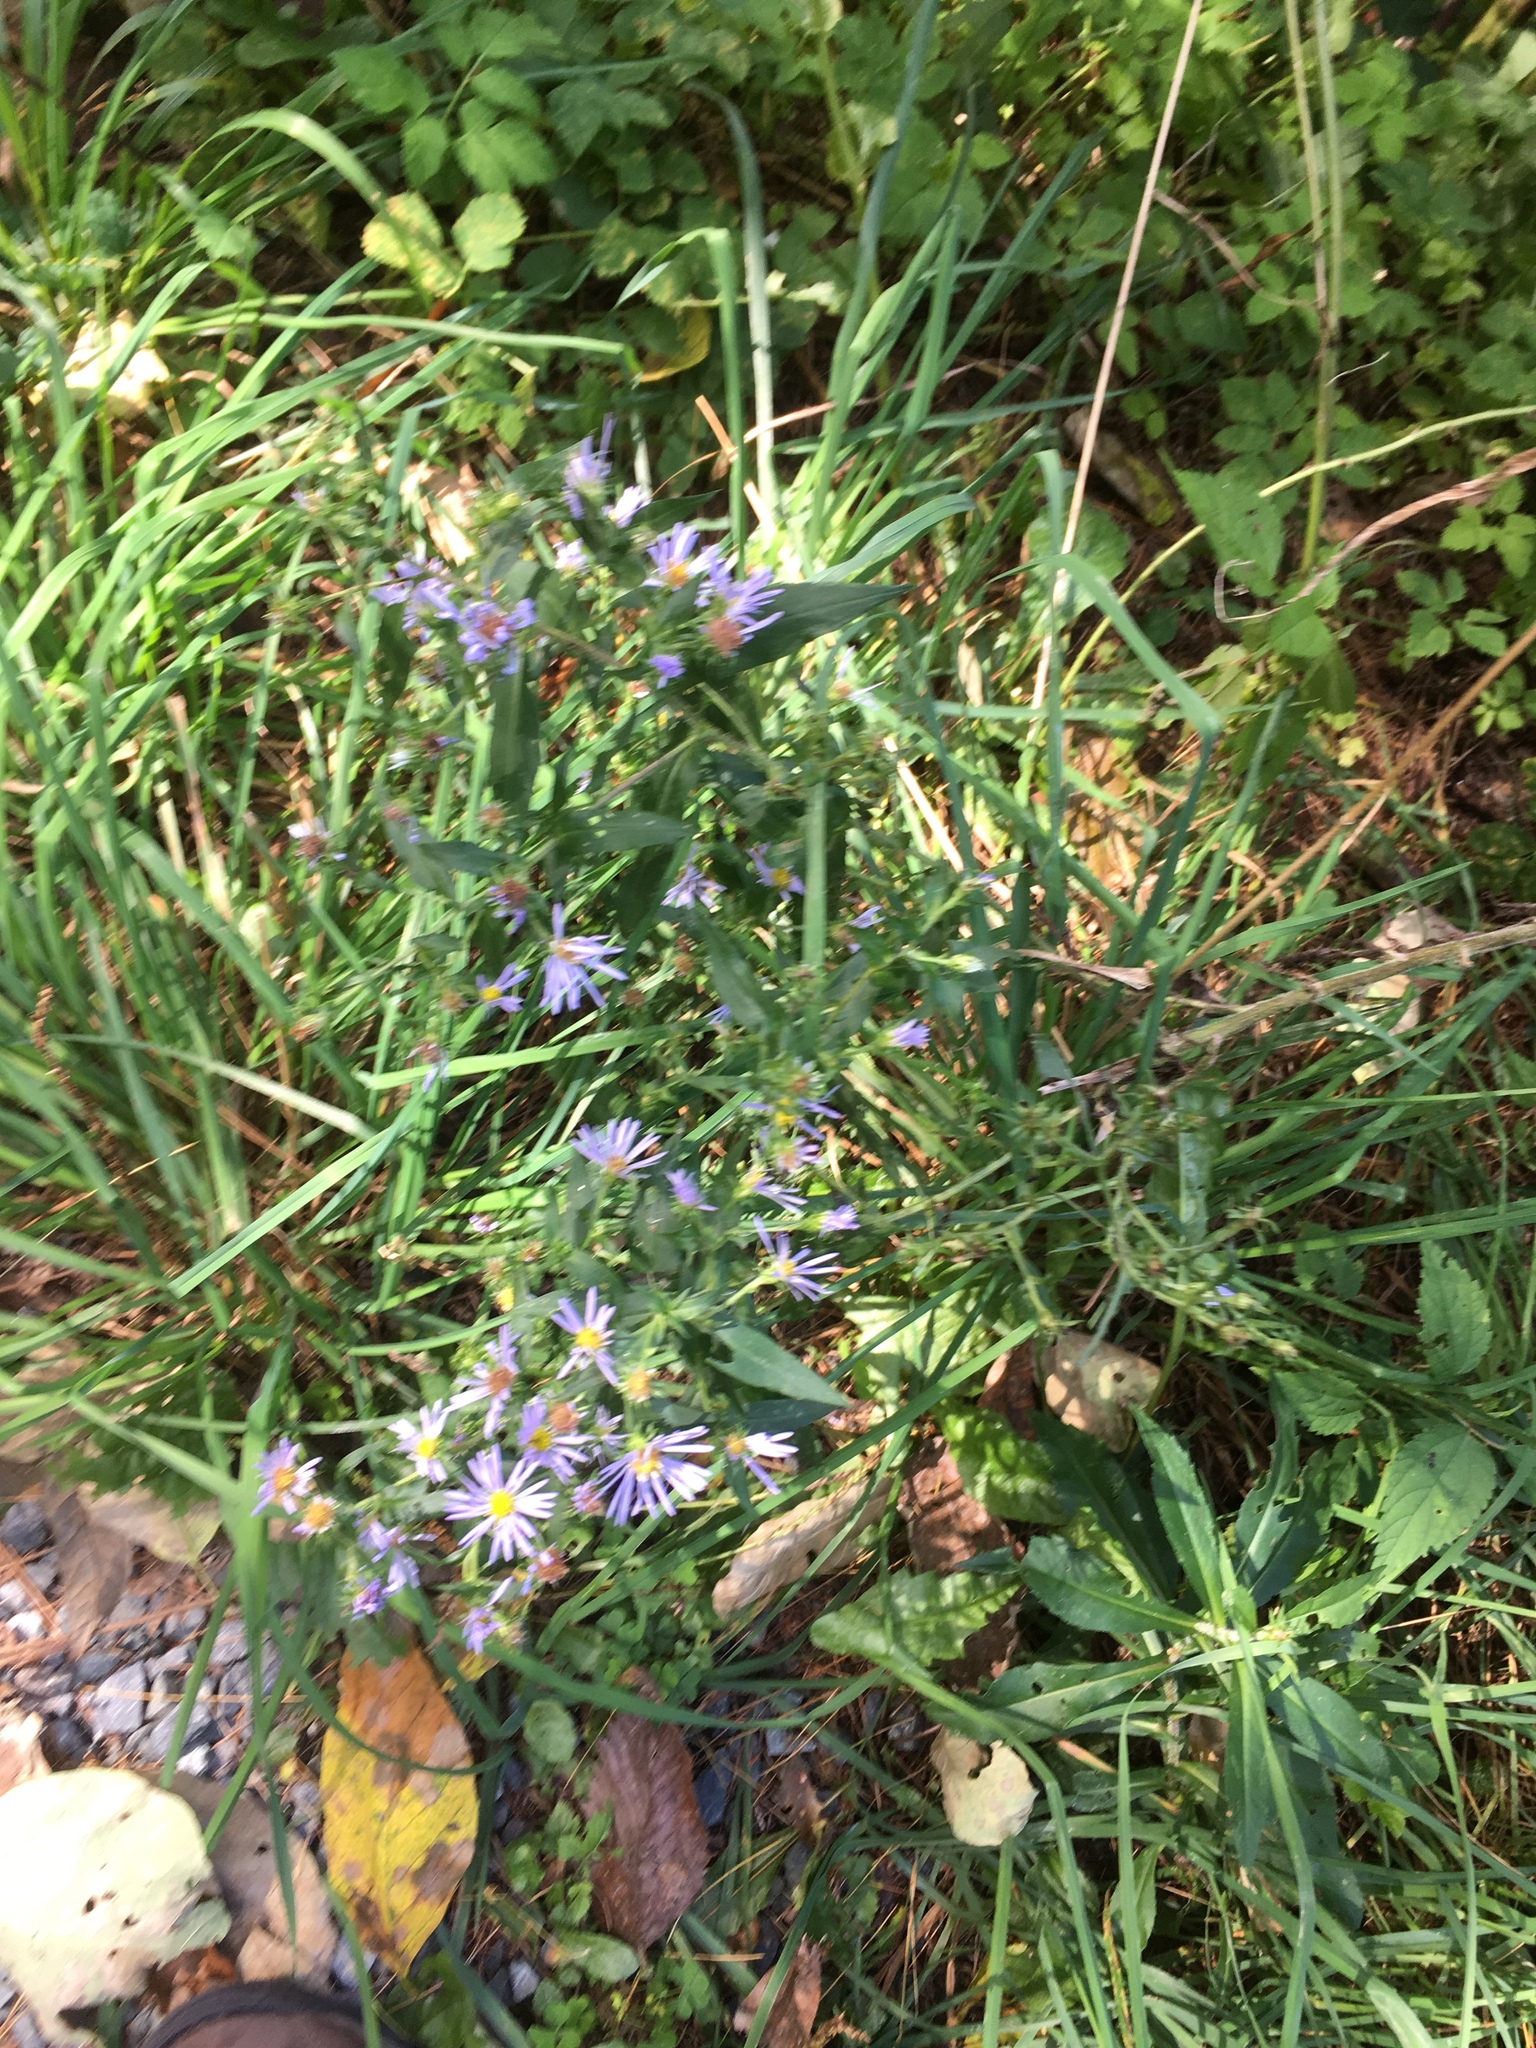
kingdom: Plantae
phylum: Tracheophyta
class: Magnoliopsida
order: Asterales
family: Asteraceae
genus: Symphyotrichum
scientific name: Symphyotrichum puniceum
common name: Bog aster
